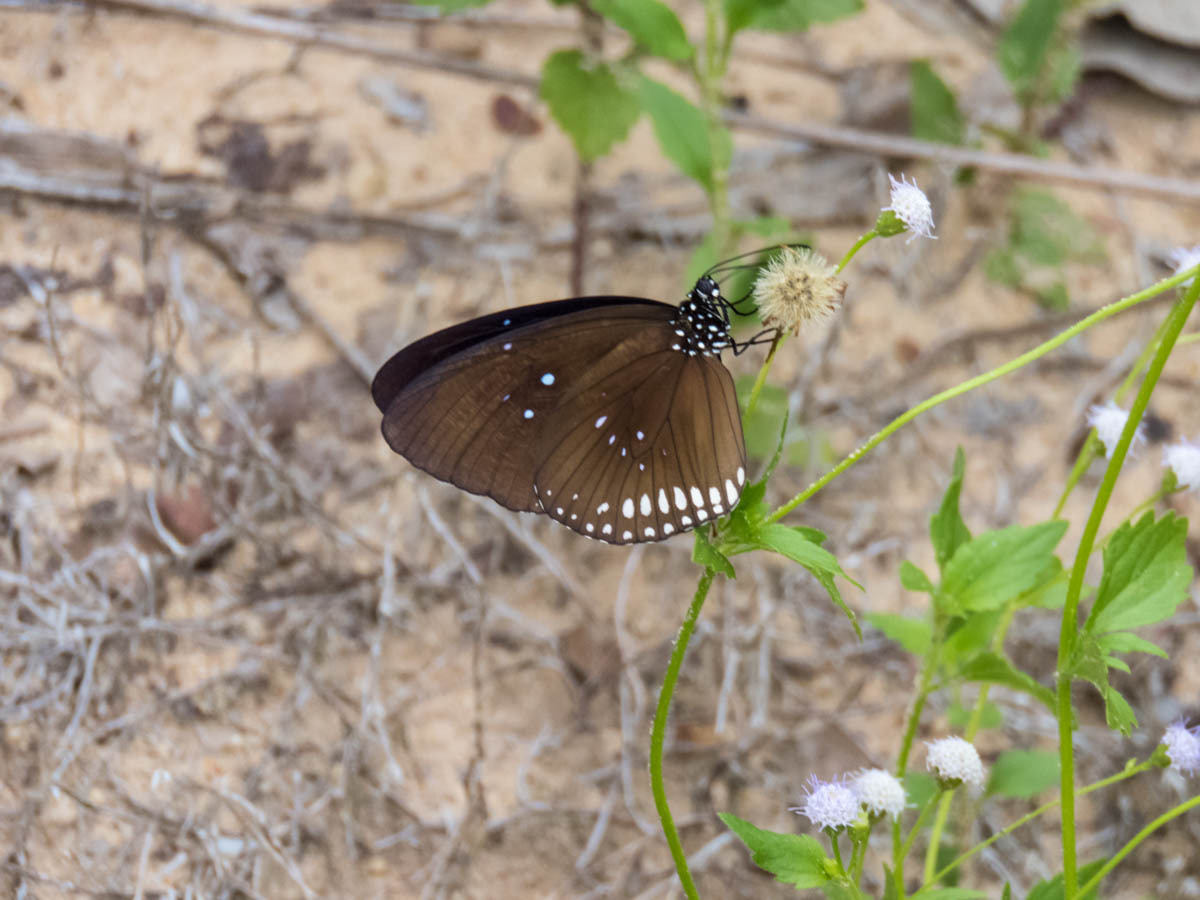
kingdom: Plantae
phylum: Tracheophyta
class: Magnoliopsida
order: Asterales
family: Asteraceae
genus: Chromolaena
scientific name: Chromolaena odorata
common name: Siamweed
